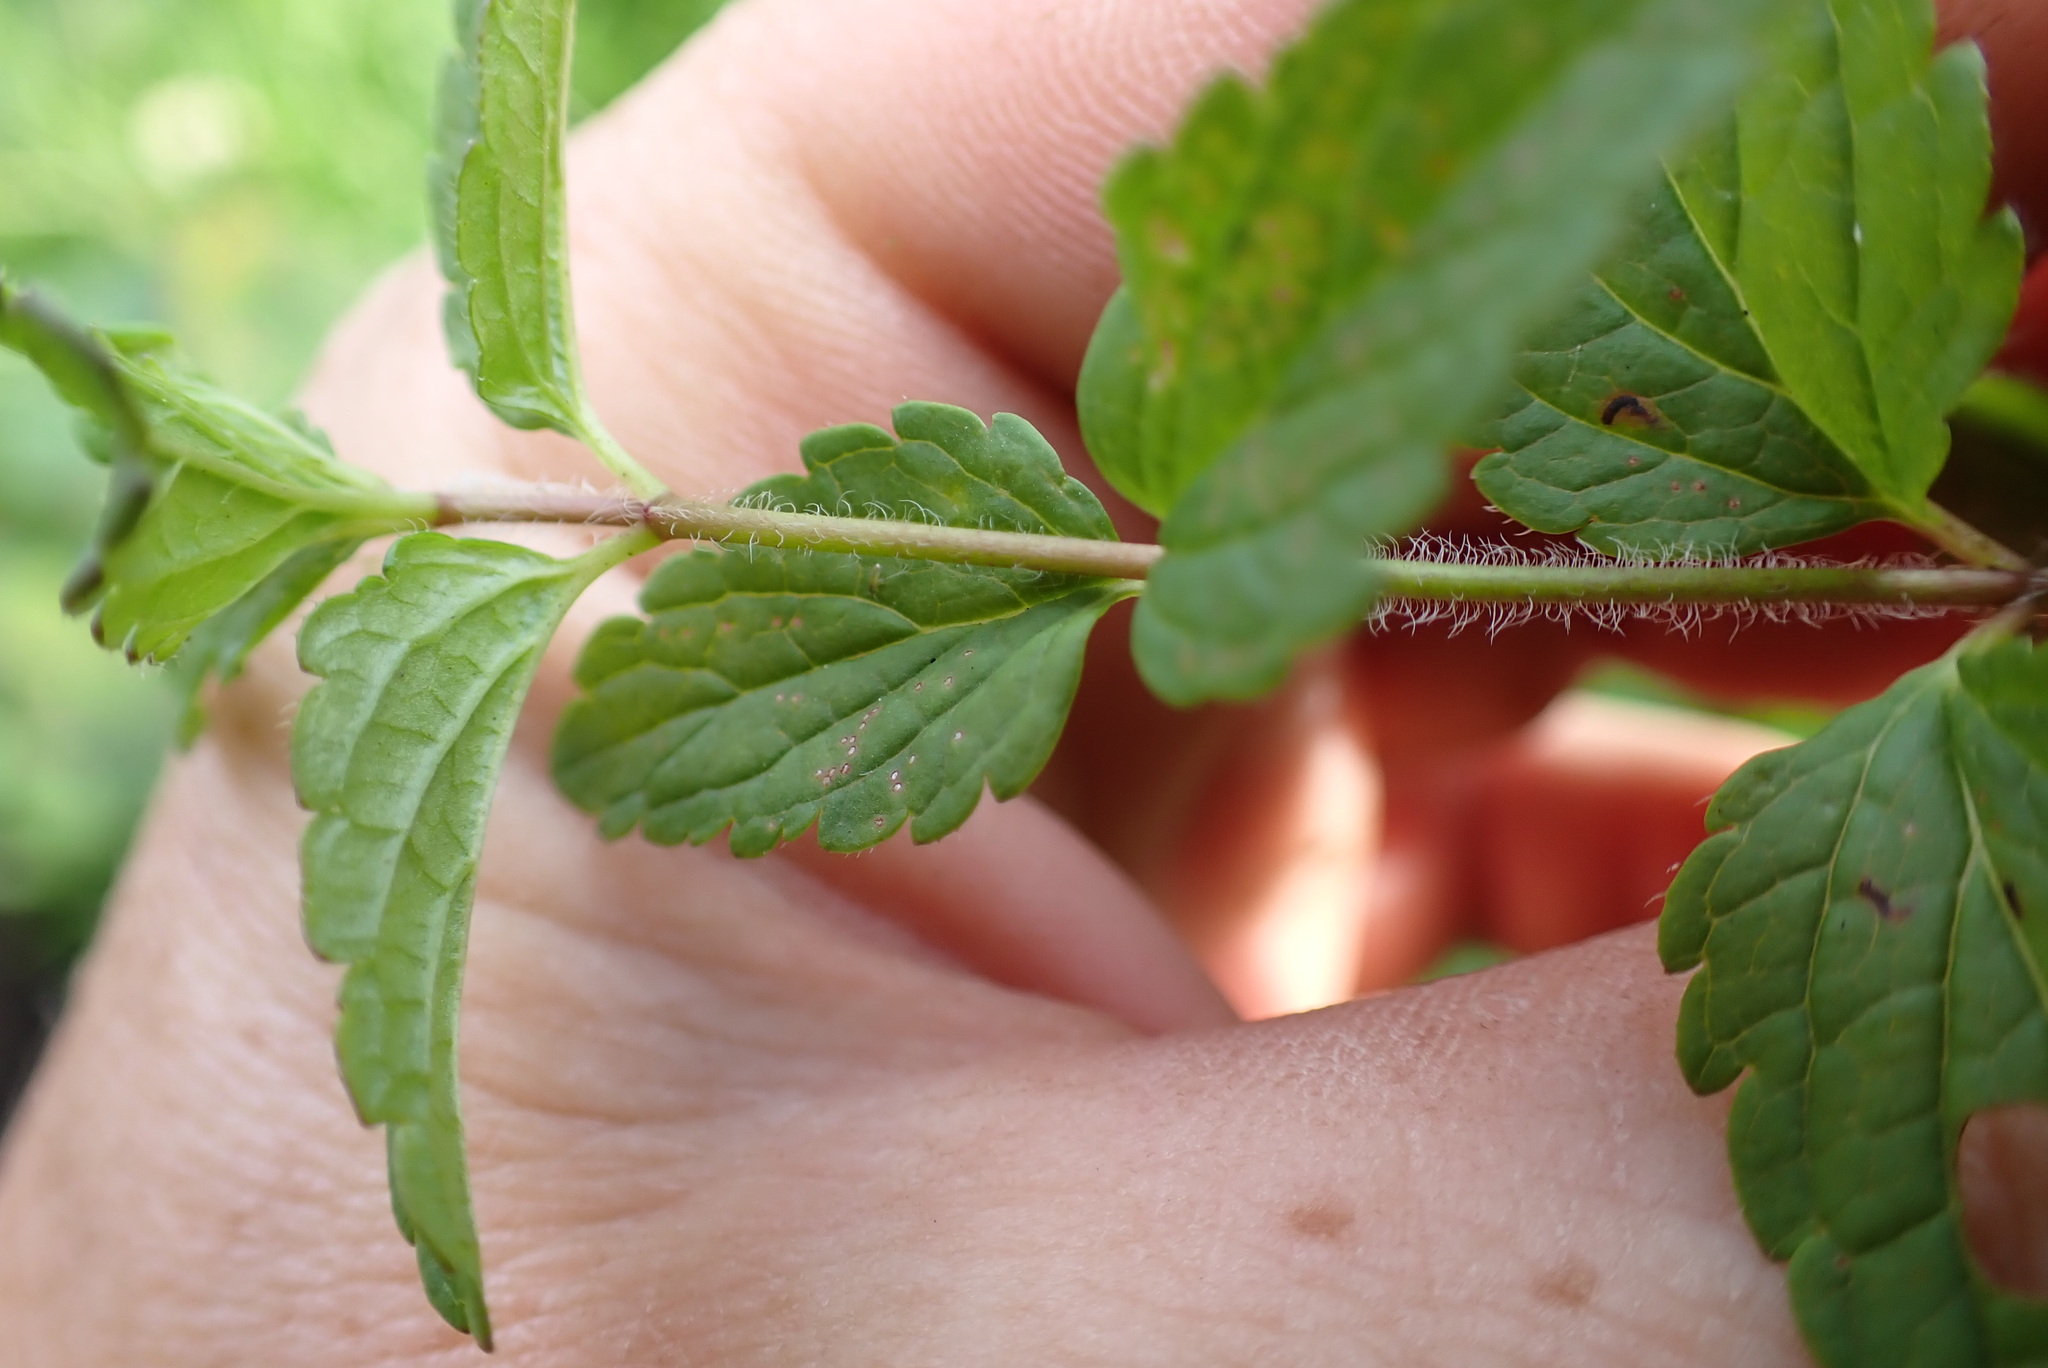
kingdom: Plantae
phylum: Tracheophyta
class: Magnoliopsida
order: Lamiales
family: Plantaginaceae
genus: Veronica
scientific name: Veronica chamaedrys
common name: Germander speedwell
